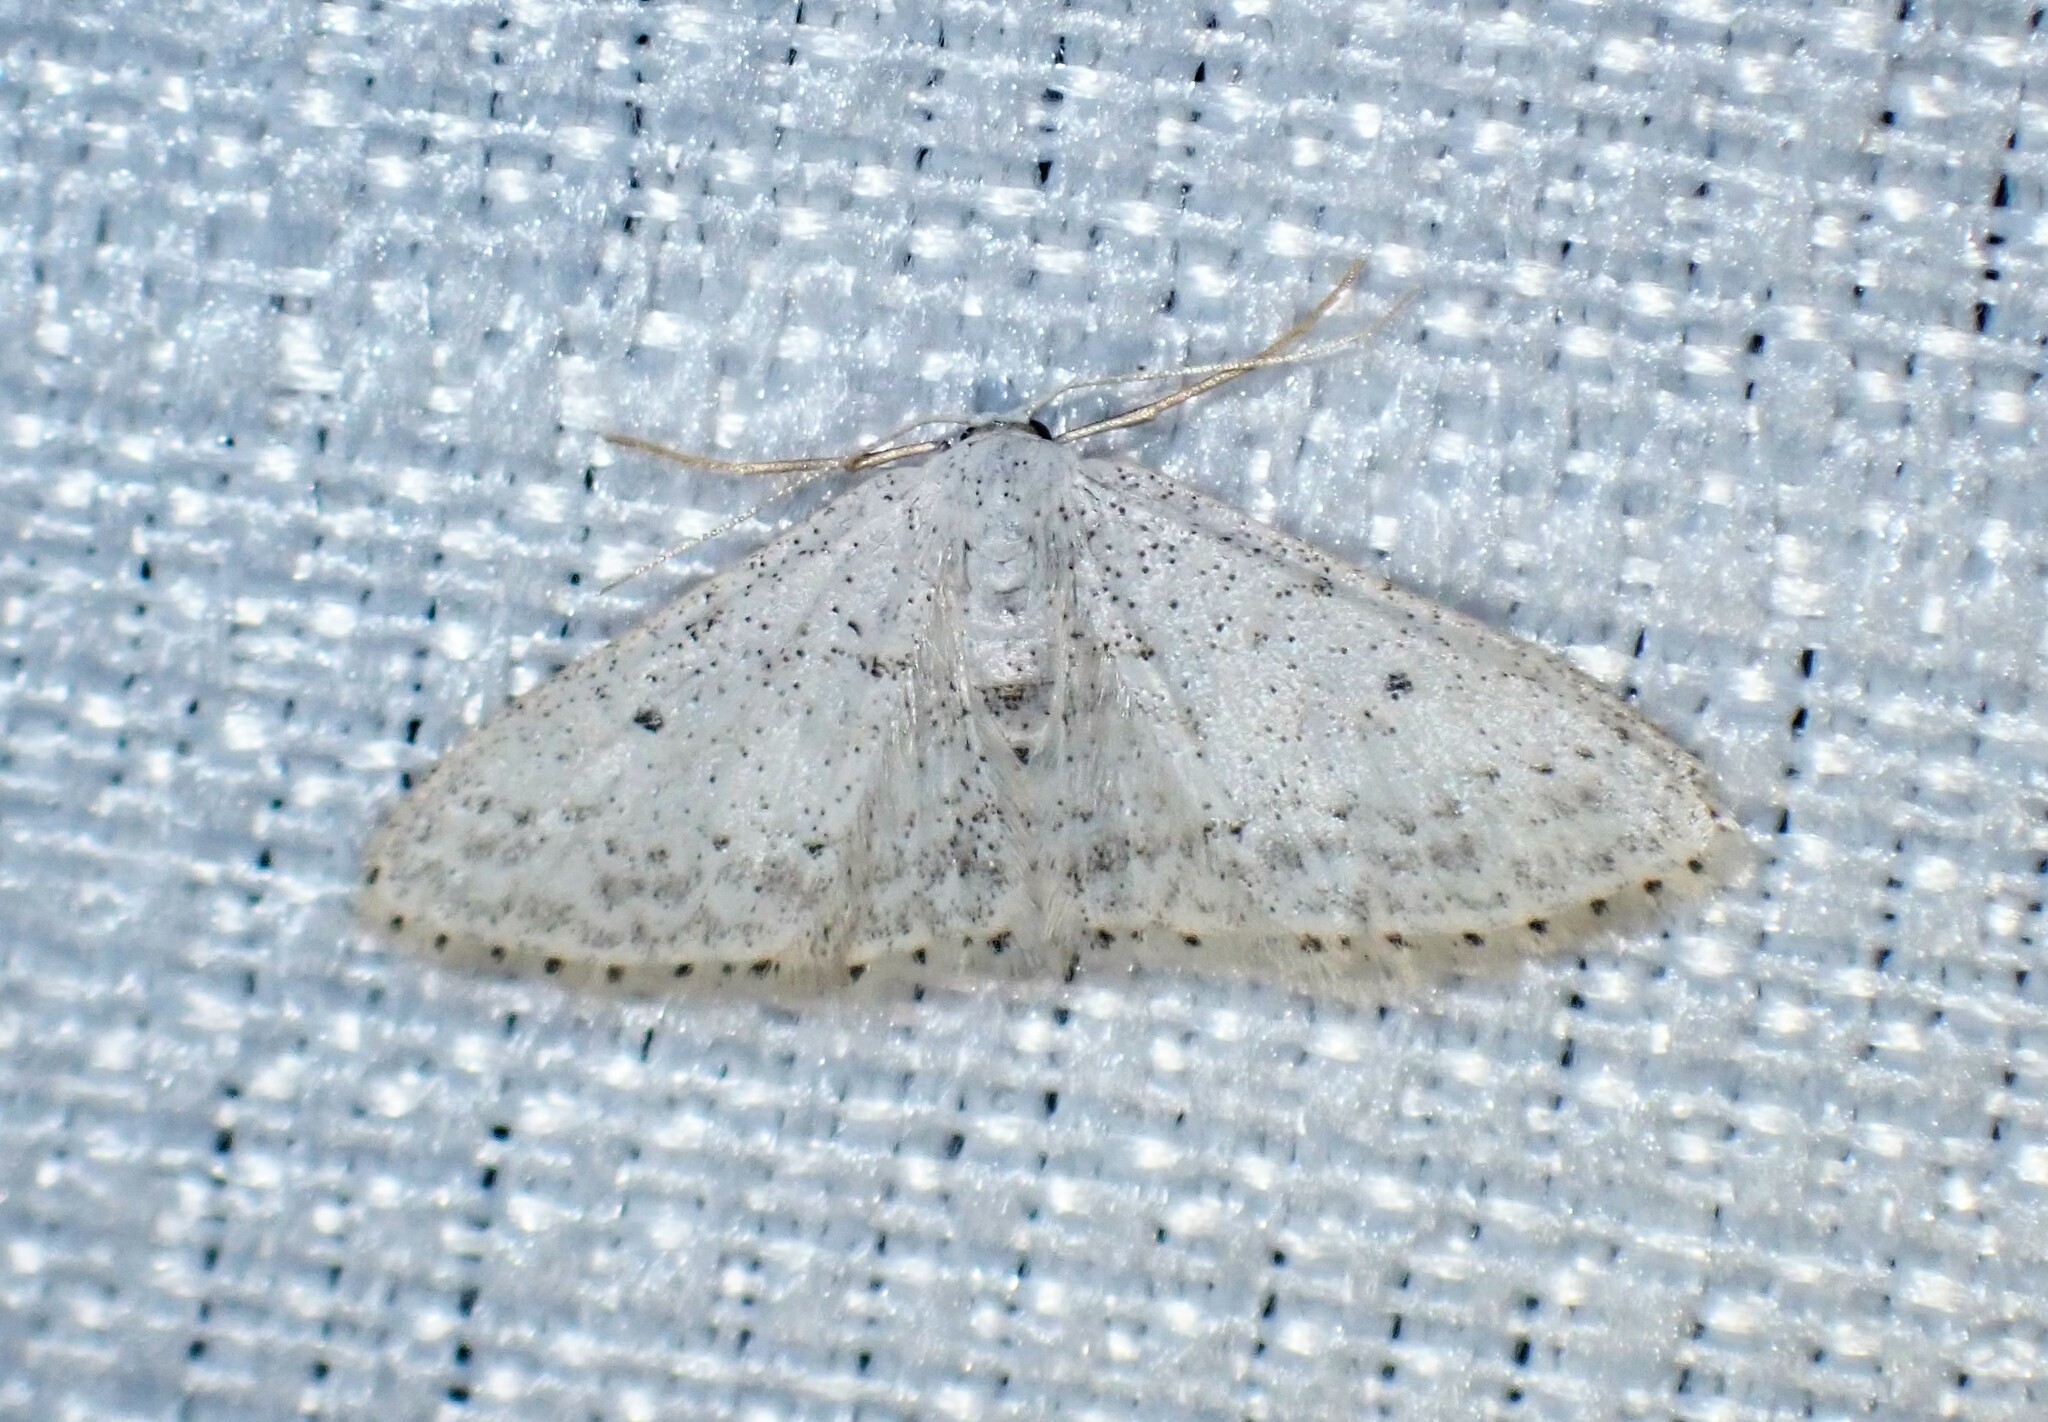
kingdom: Animalia
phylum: Arthropoda
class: Insecta
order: Lepidoptera
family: Geometridae
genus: Idaea
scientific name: Idaea seriata
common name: Small dusty wave
